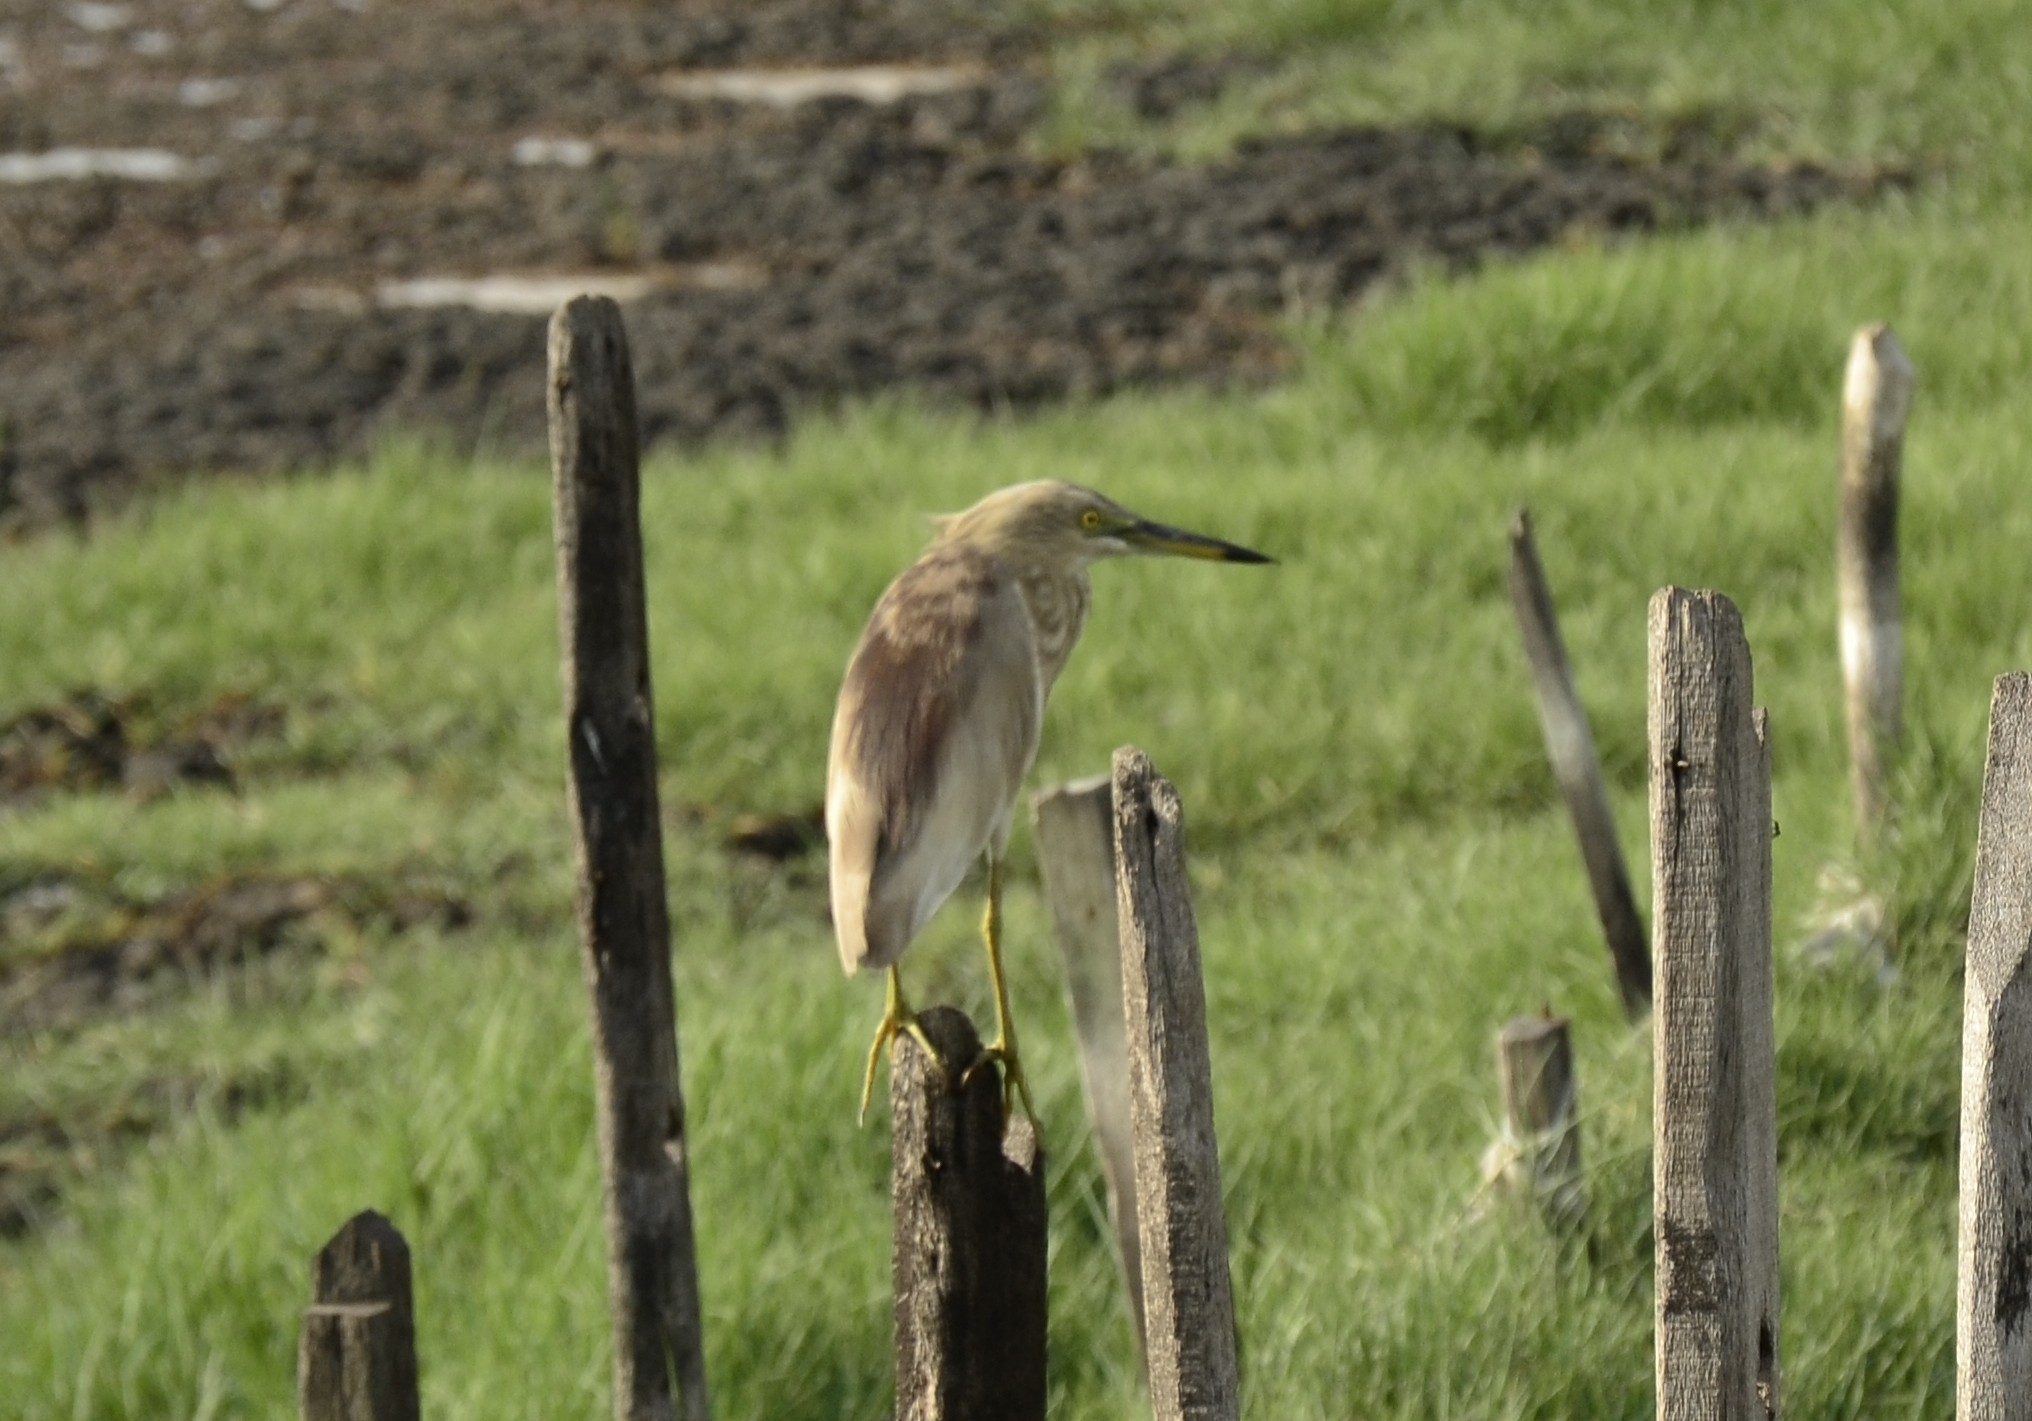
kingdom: Animalia
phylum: Chordata
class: Aves
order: Pelecaniformes
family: Ardeidae
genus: Ardeola
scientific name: Ardeola grayii
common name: Indian pond heron
